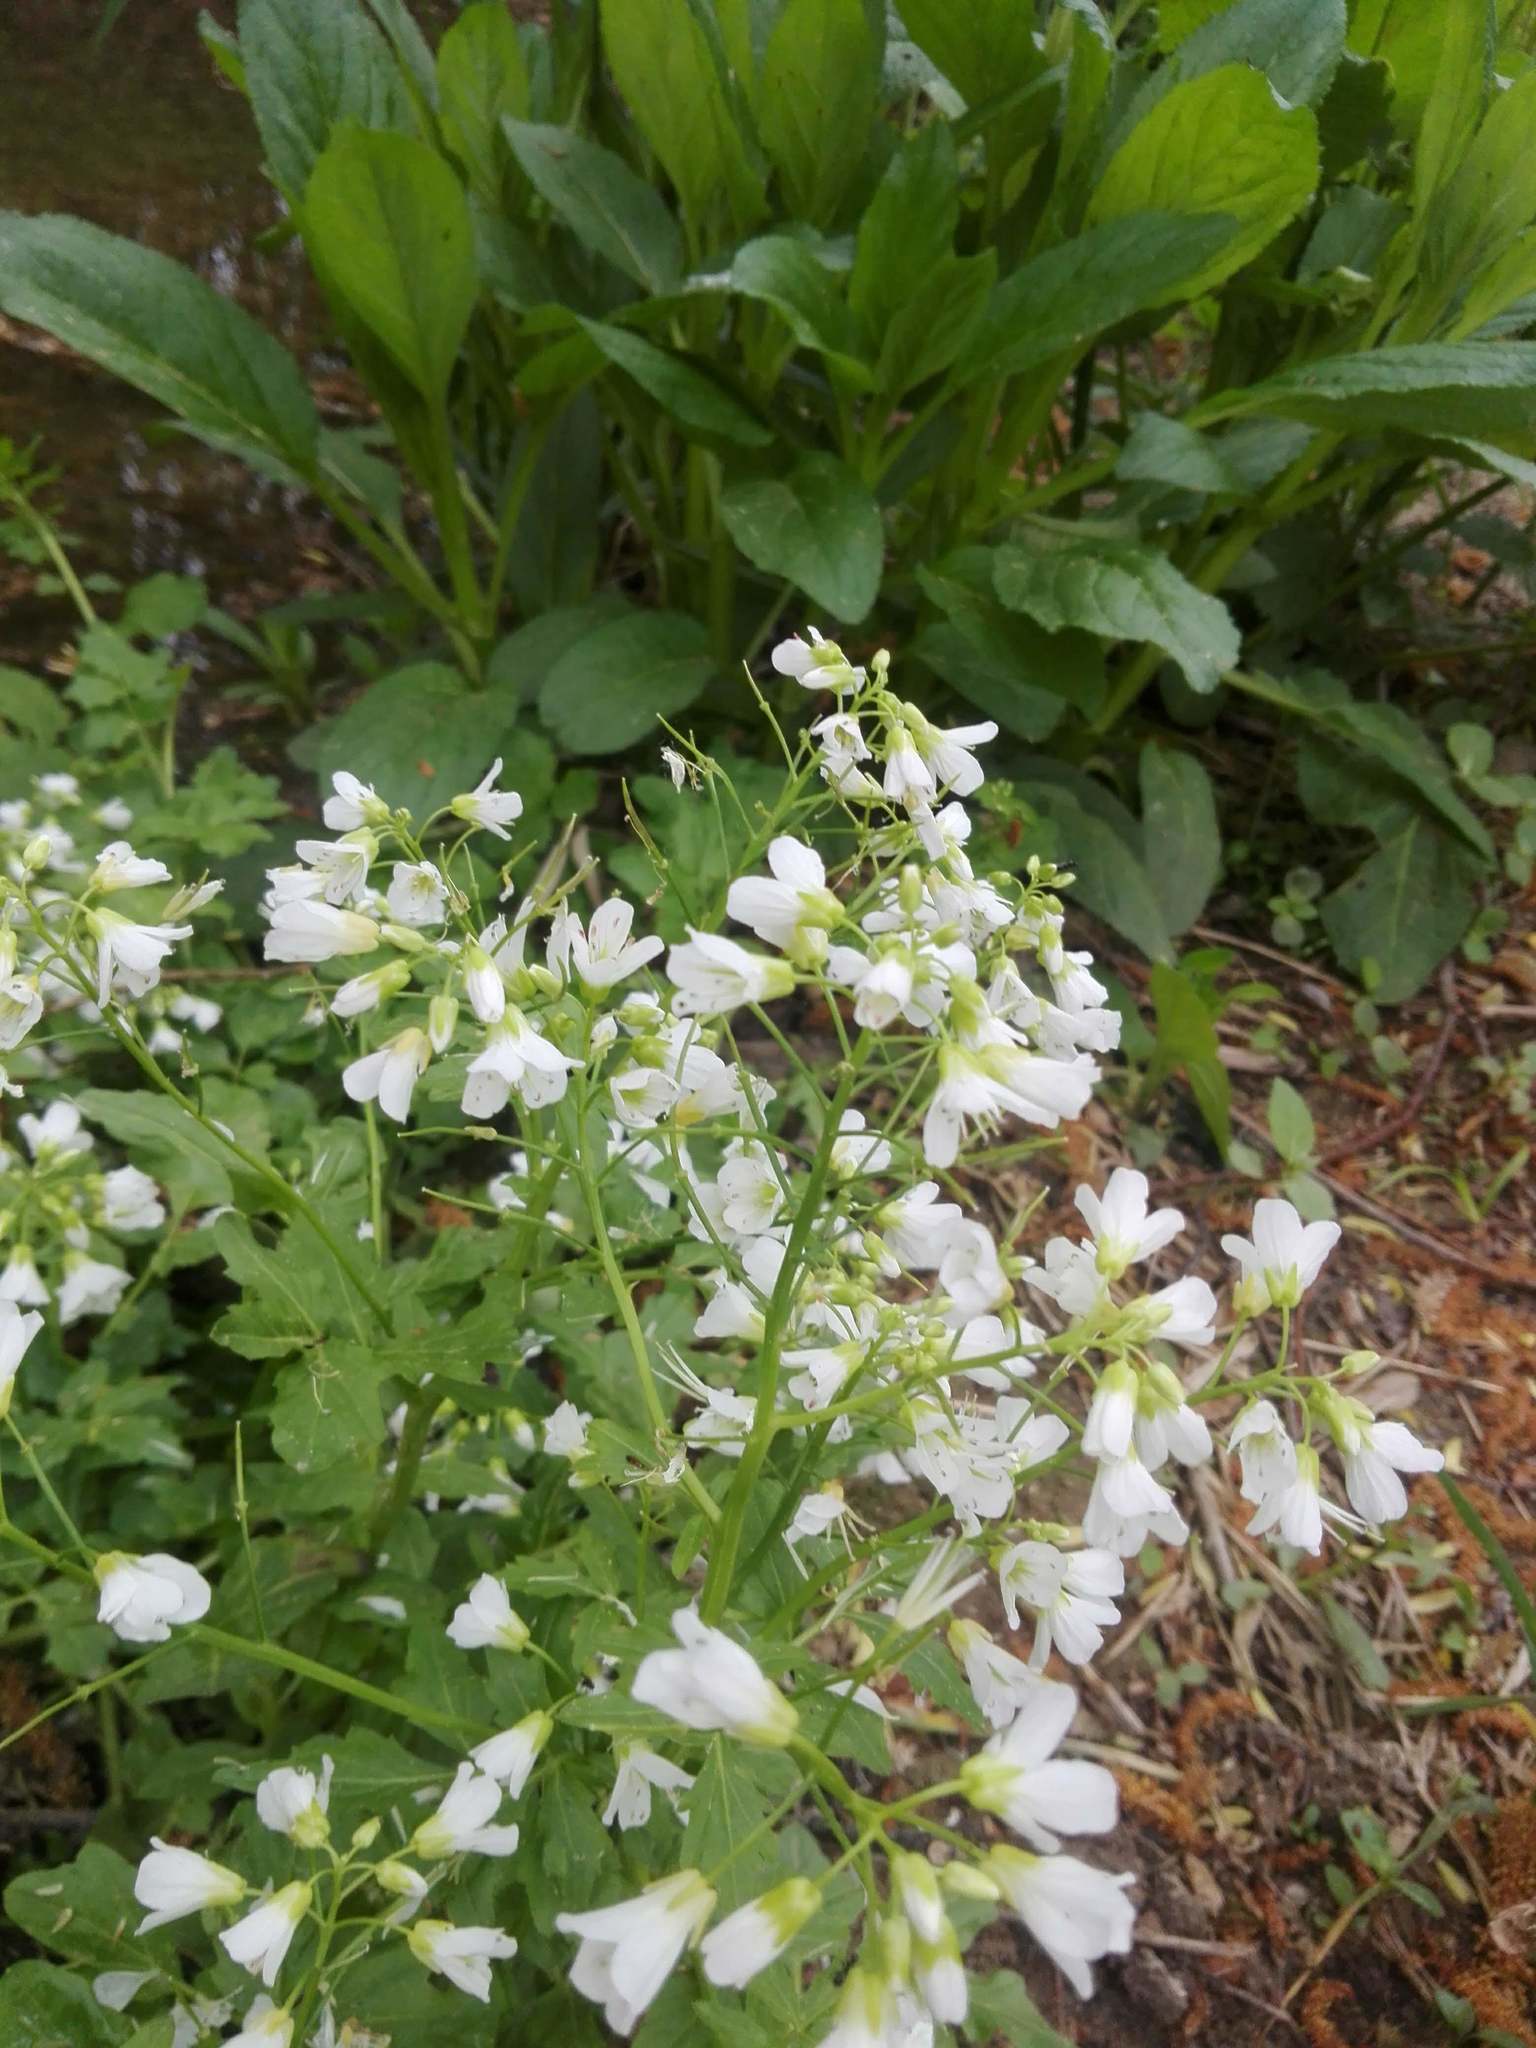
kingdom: Plantae
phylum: Tracheophyta
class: Magnoliopsida
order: Brassicales
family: Brassicaceae
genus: Cardamine
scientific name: Cardamine amara
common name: Large bitter-cress
